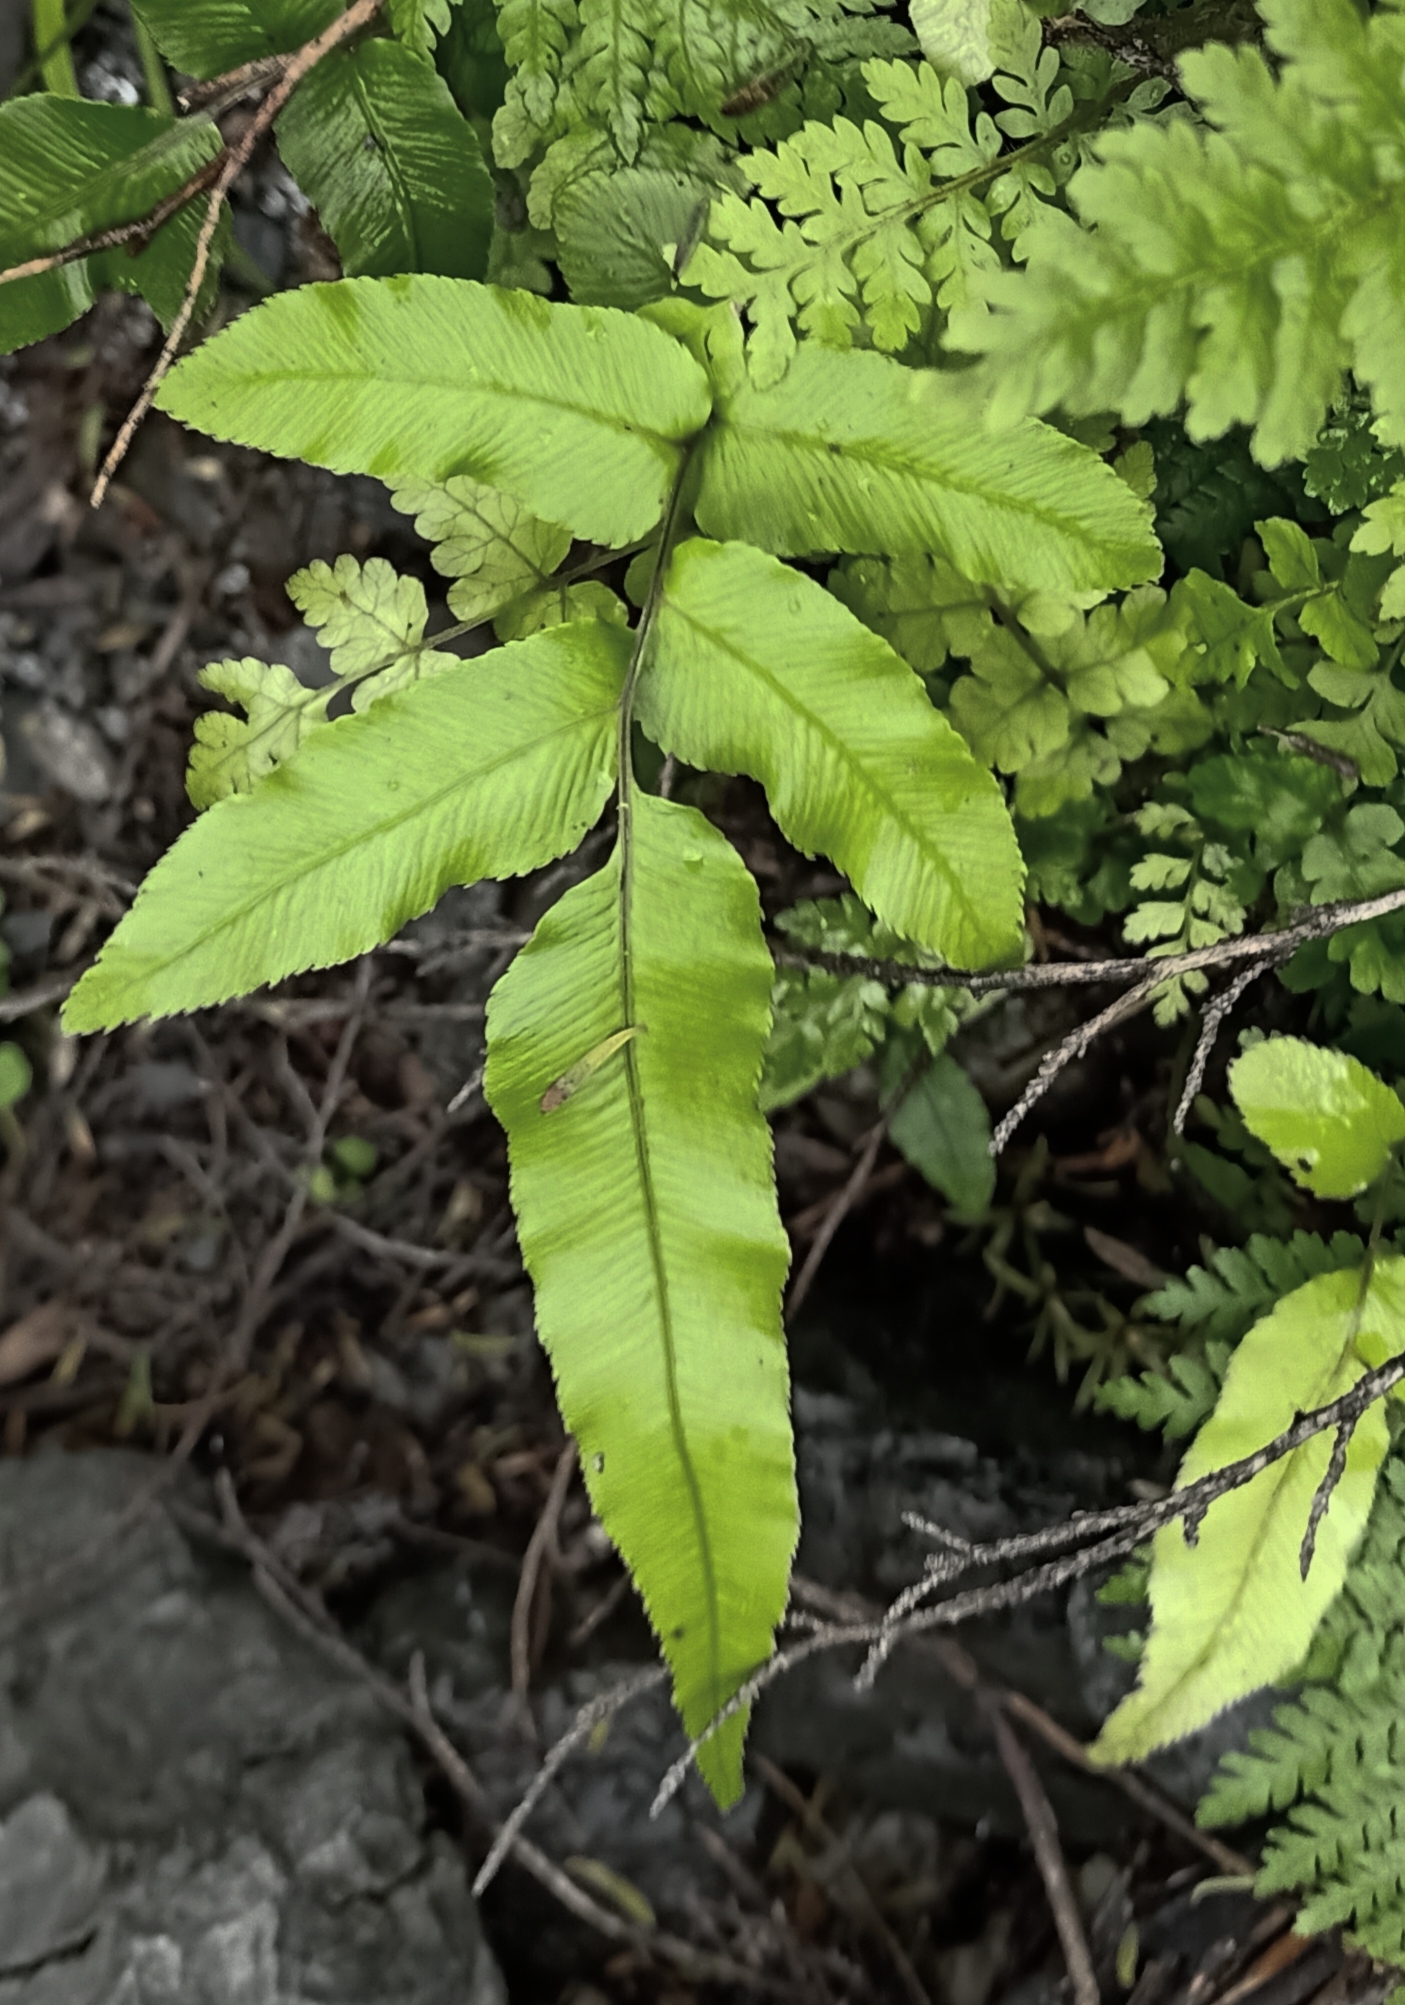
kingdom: Plantae
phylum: Tracheophyta
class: Polypodiopsida
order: Polypodiales
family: Blechnaceae
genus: Parablechnum
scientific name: Parablechnum procerum
